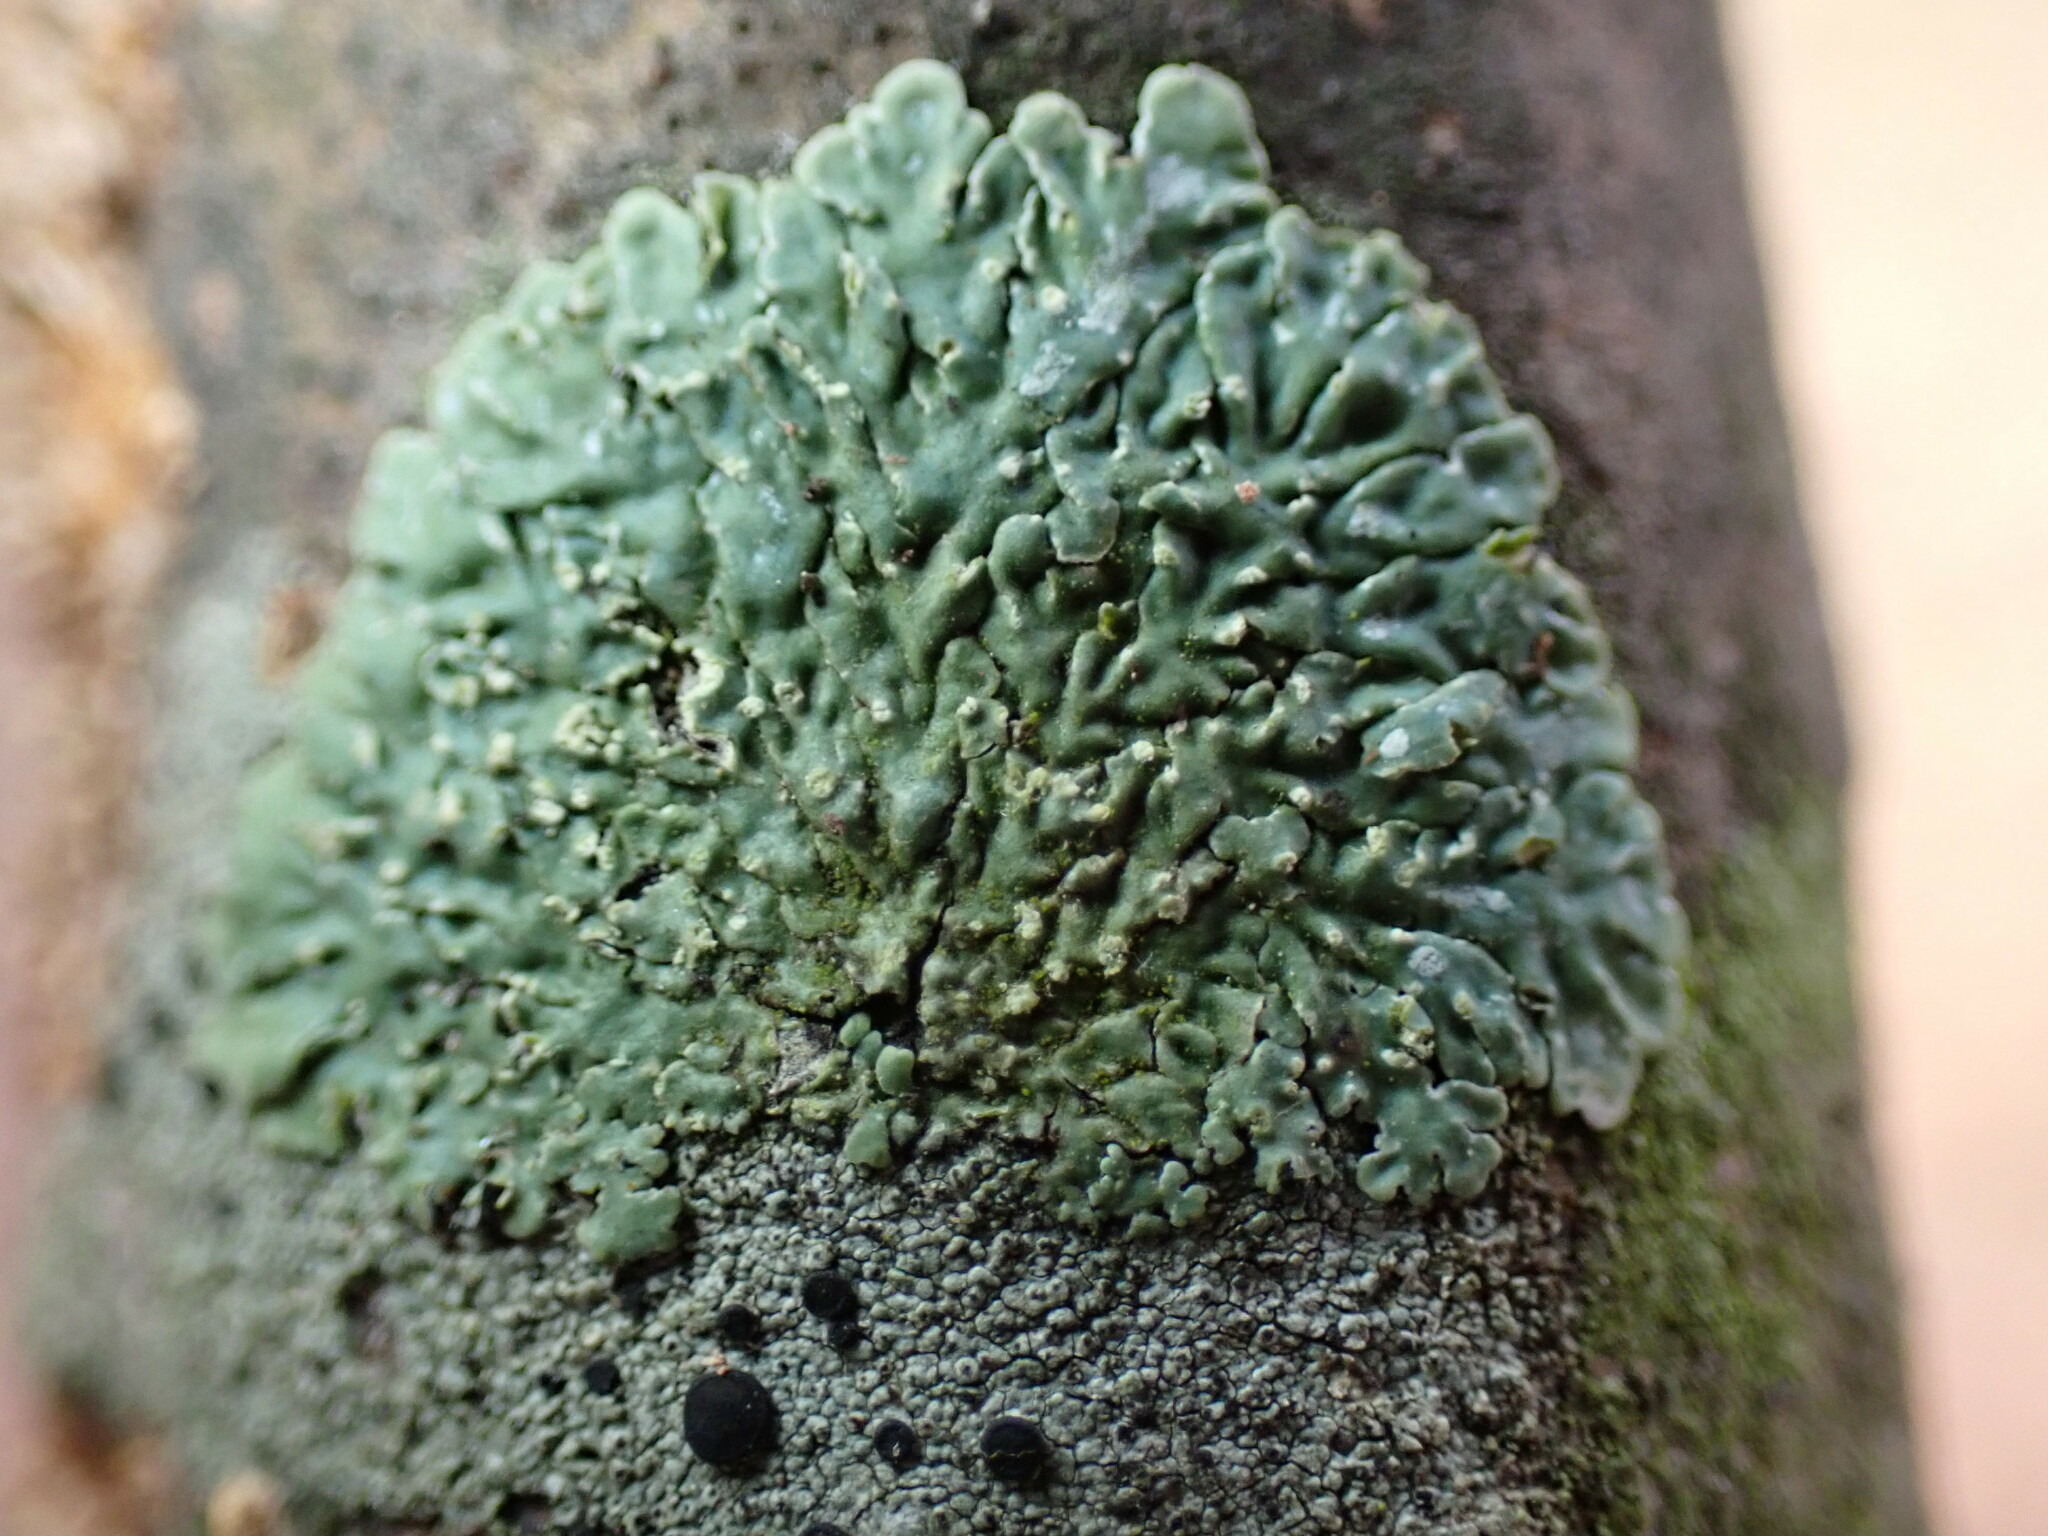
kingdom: Fungi
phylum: Ascomycota
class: Lecanoromycetes
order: Caliciales
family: Caliciaceae
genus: Pyxine
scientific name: Pyxine sorediata
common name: Mustard lichen
